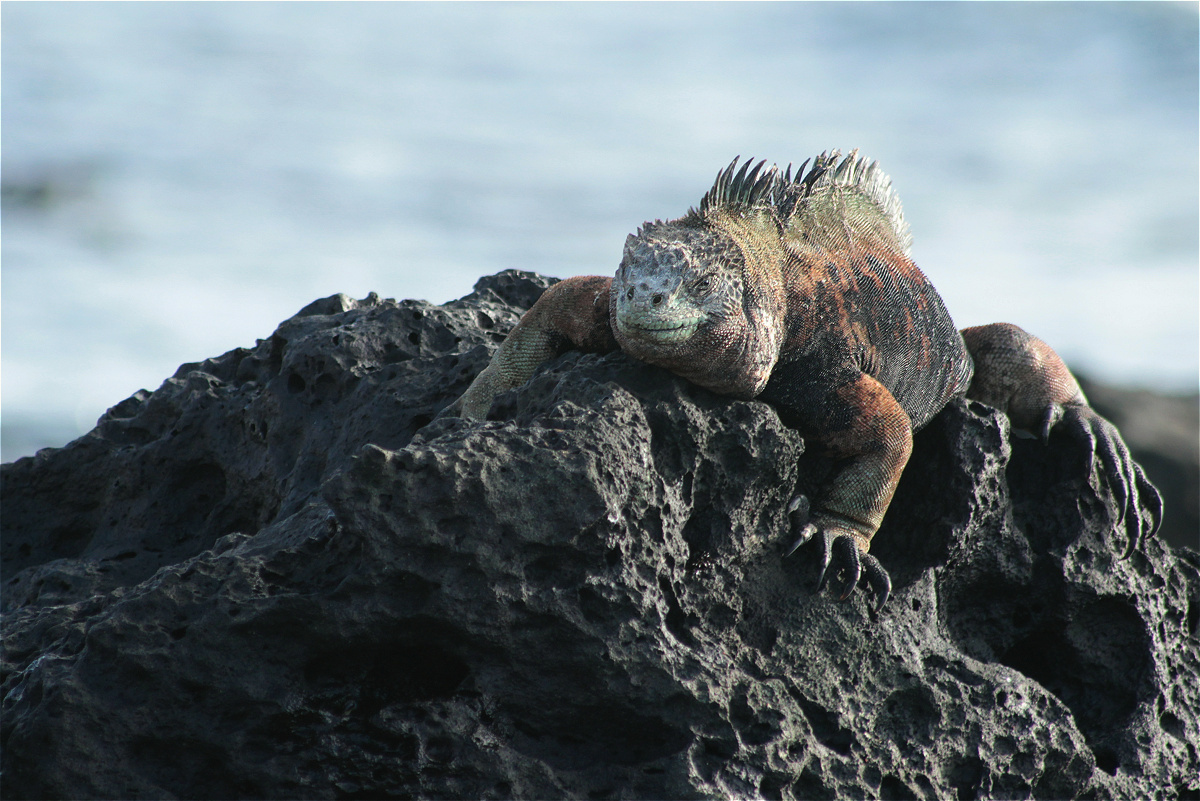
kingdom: Animalia
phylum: Chordata
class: Squamata
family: Iguanidae
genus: Amblyrhynchus
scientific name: Amblyrhynchus cristatus
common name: Marine iguana
